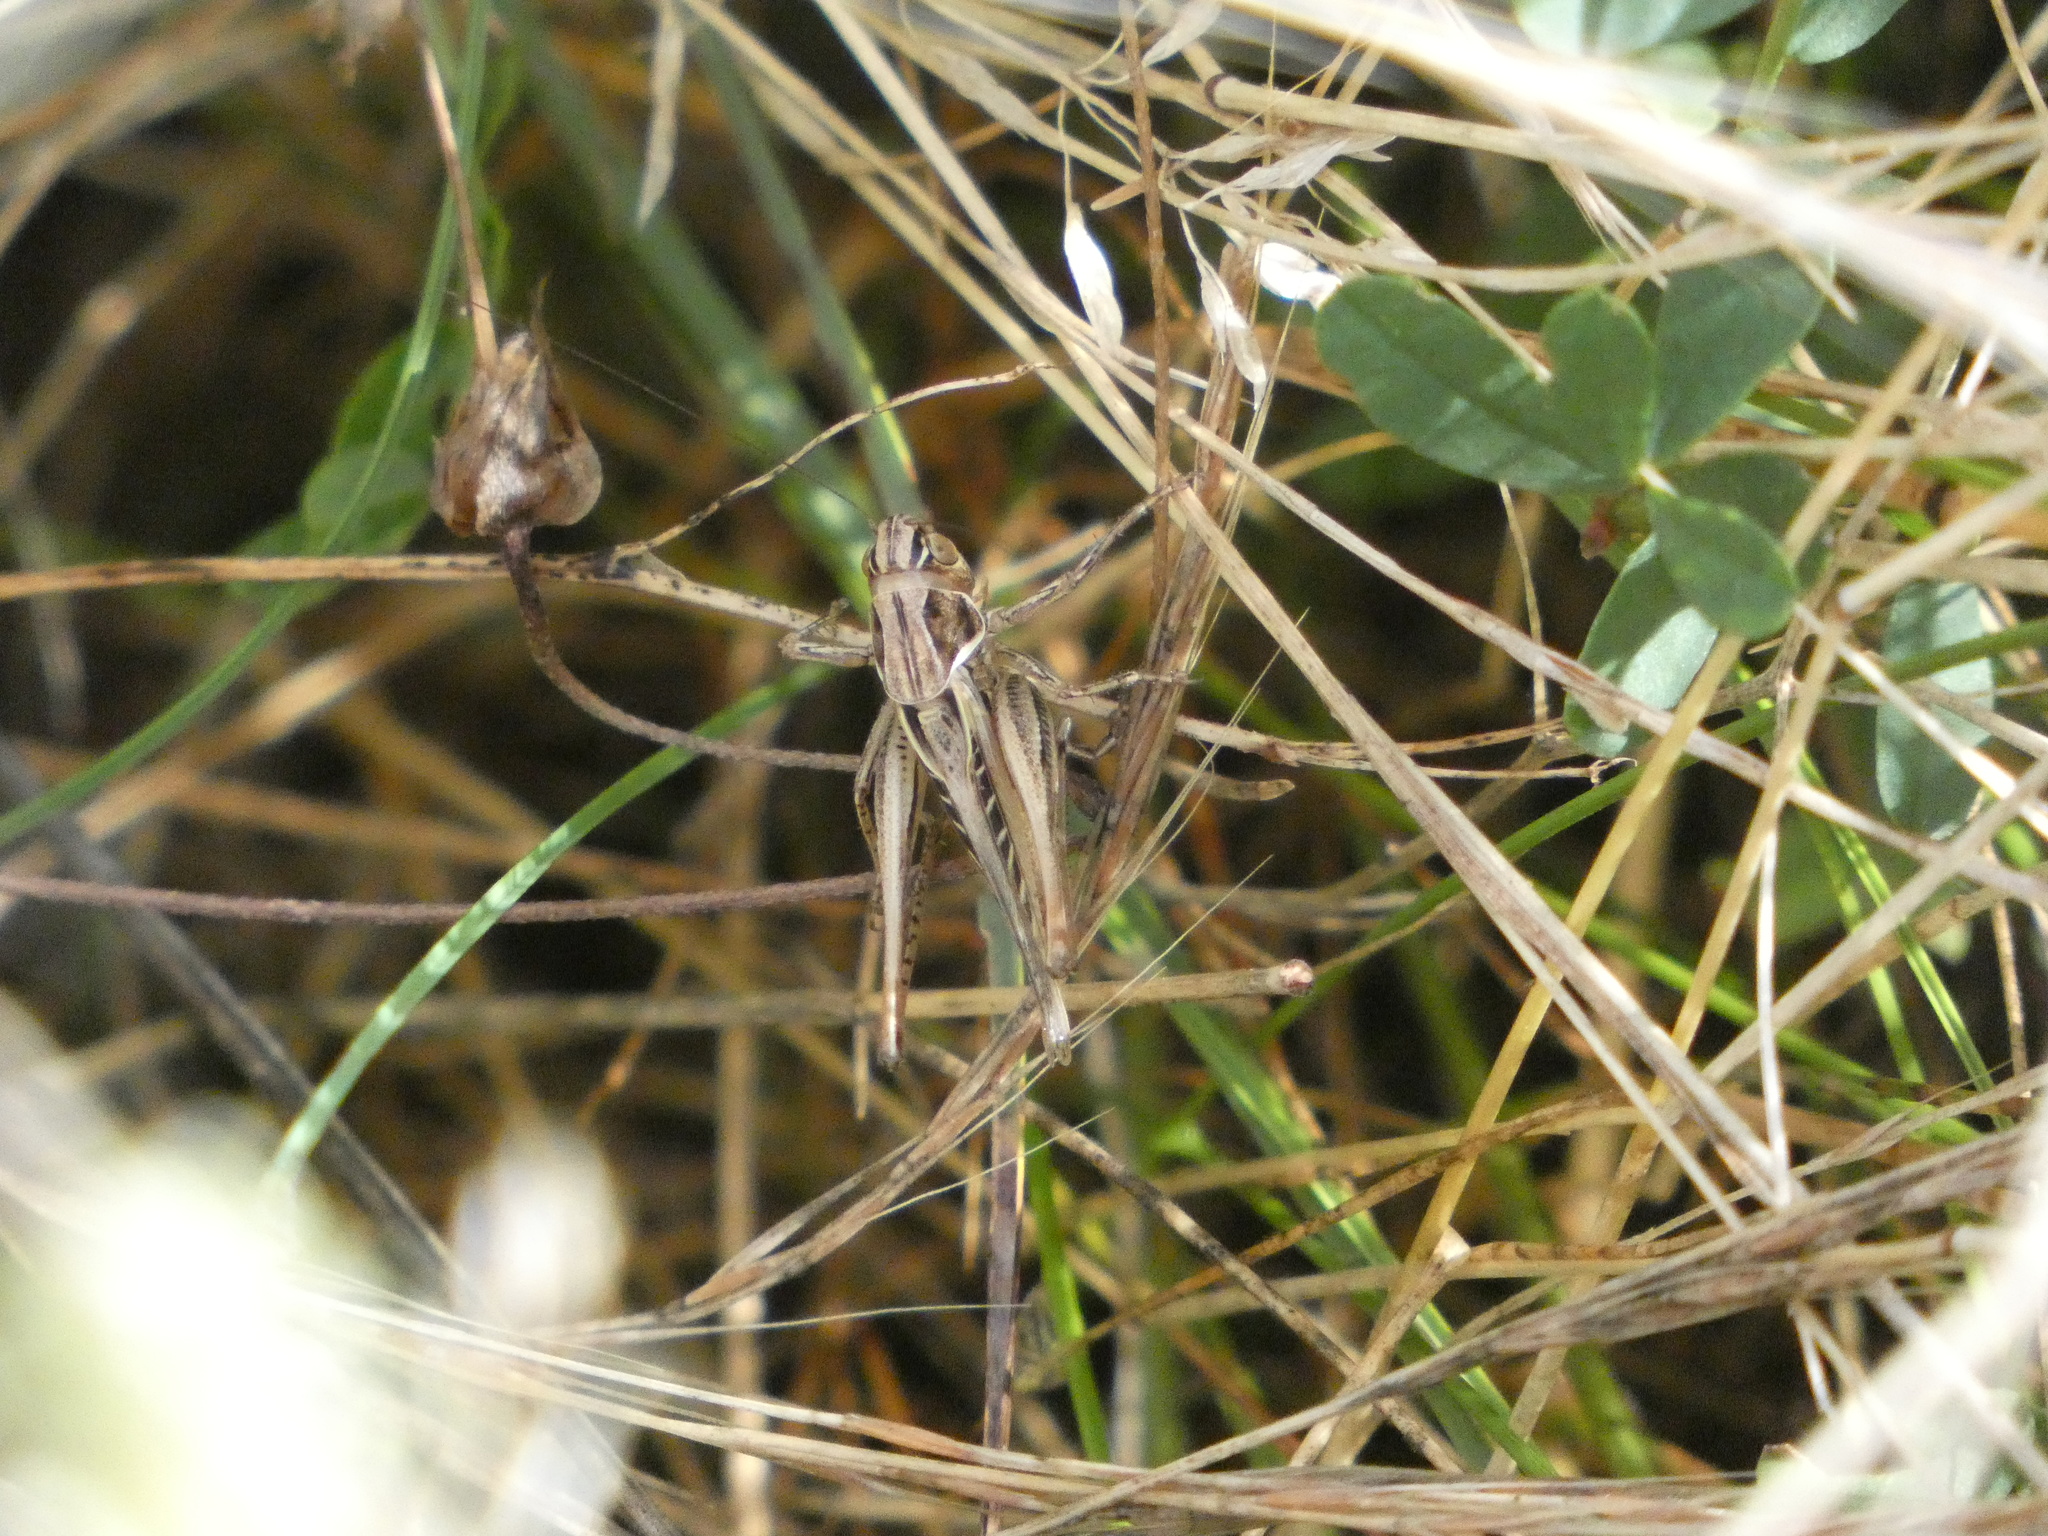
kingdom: Animalia
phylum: Arthropoda
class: Insecta
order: Orthoptera
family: Tettigoniidae
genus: Tessellana
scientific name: Tessellana tessellata
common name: Grasshopper
